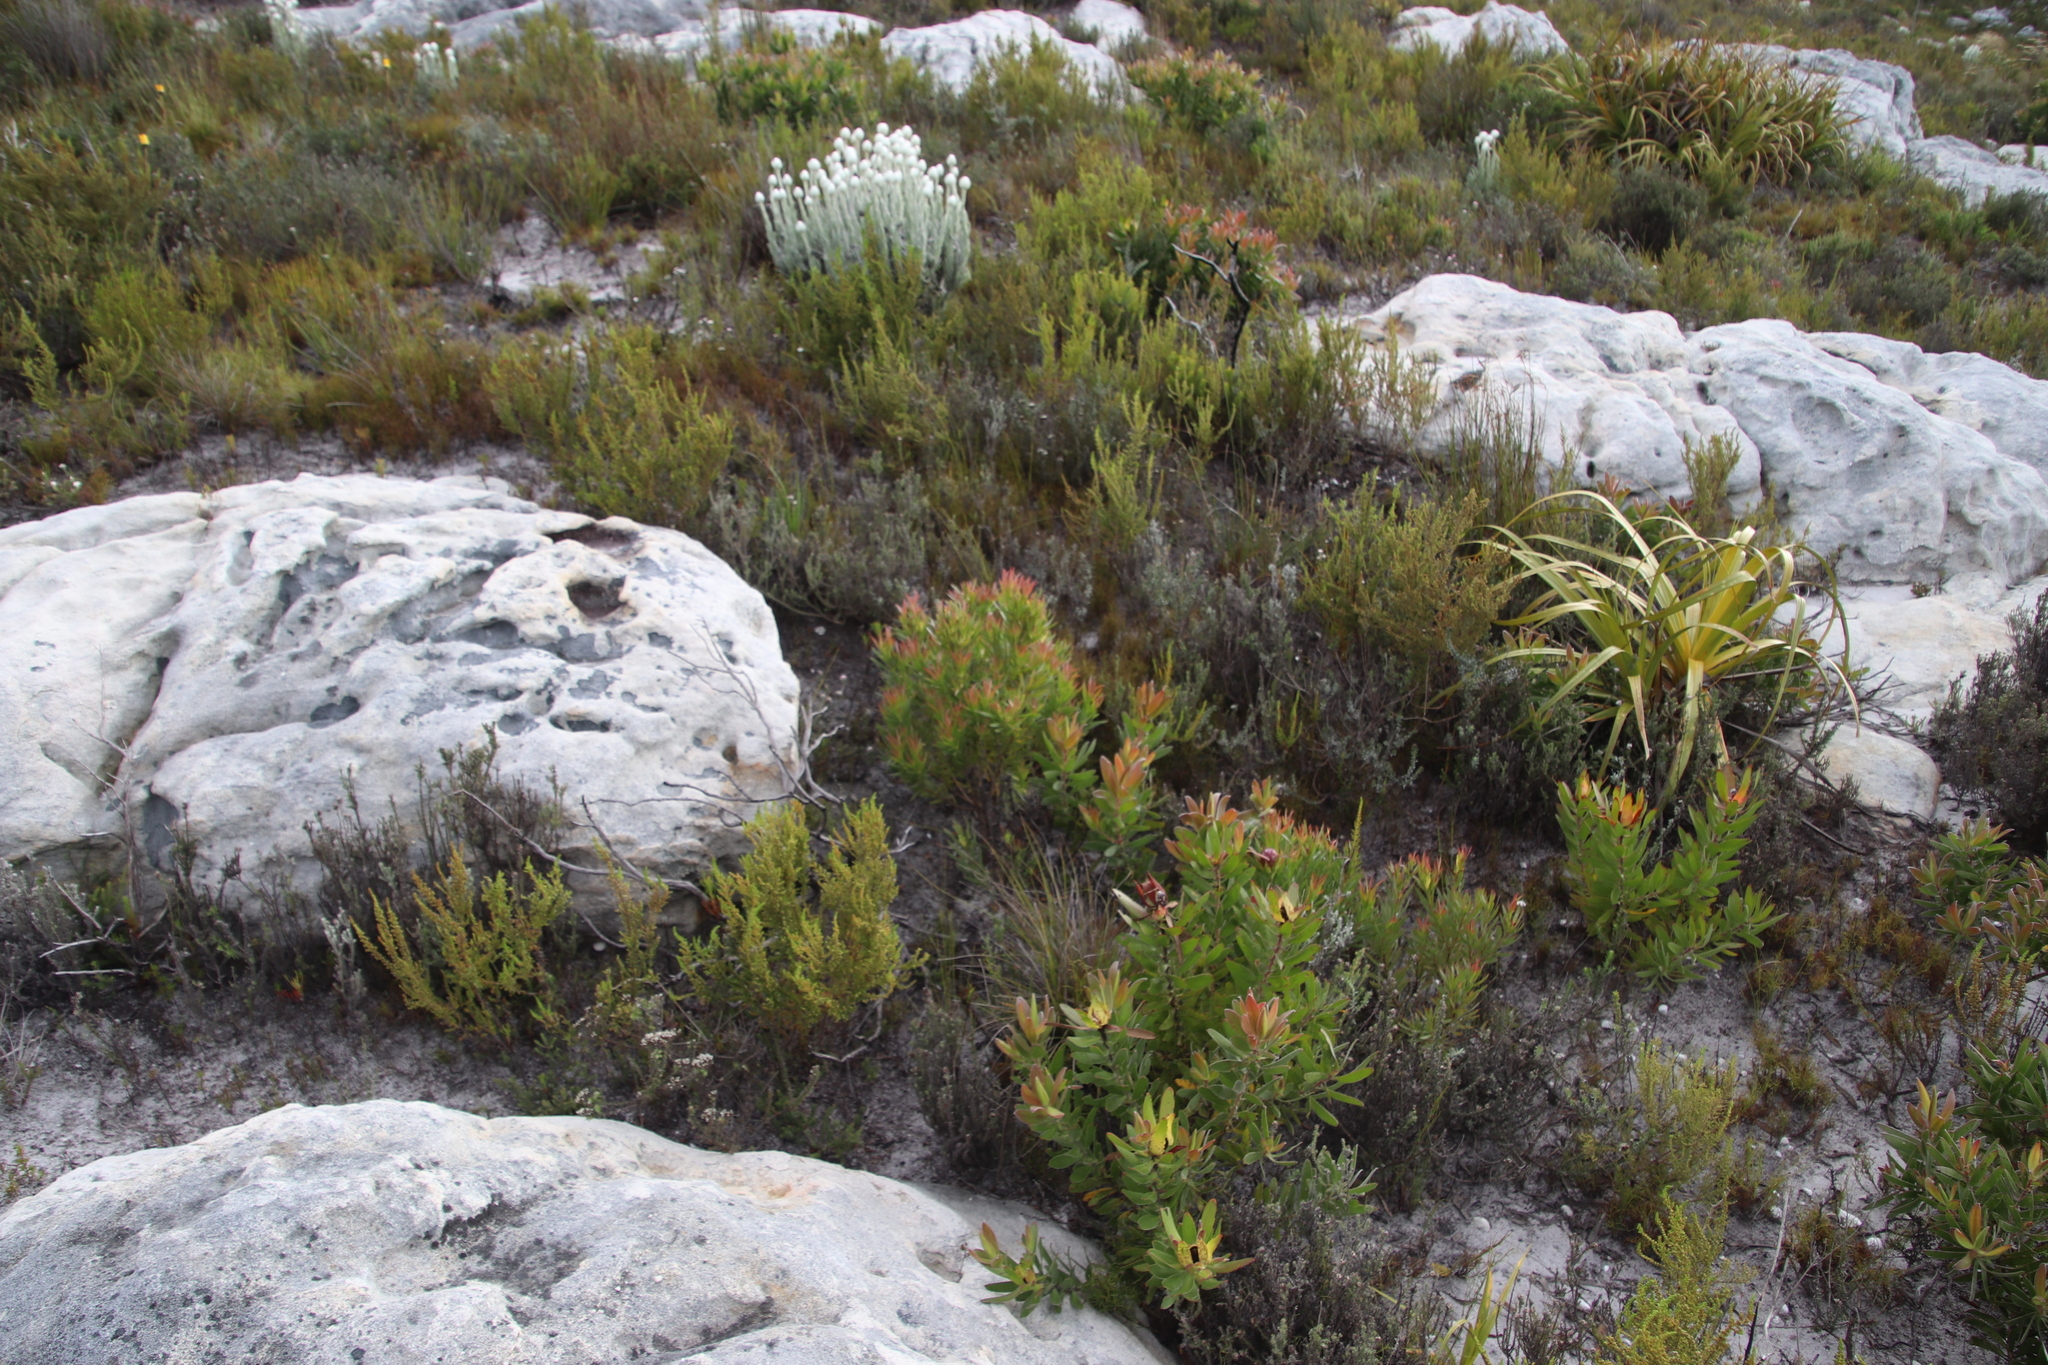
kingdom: Plantae
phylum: Tracheophyta
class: Magnoliopsida
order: Proteales
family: Proteaceae
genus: Leucadendron
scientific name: Leucadendron xanthoconus
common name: Sickle-leaf conebush
